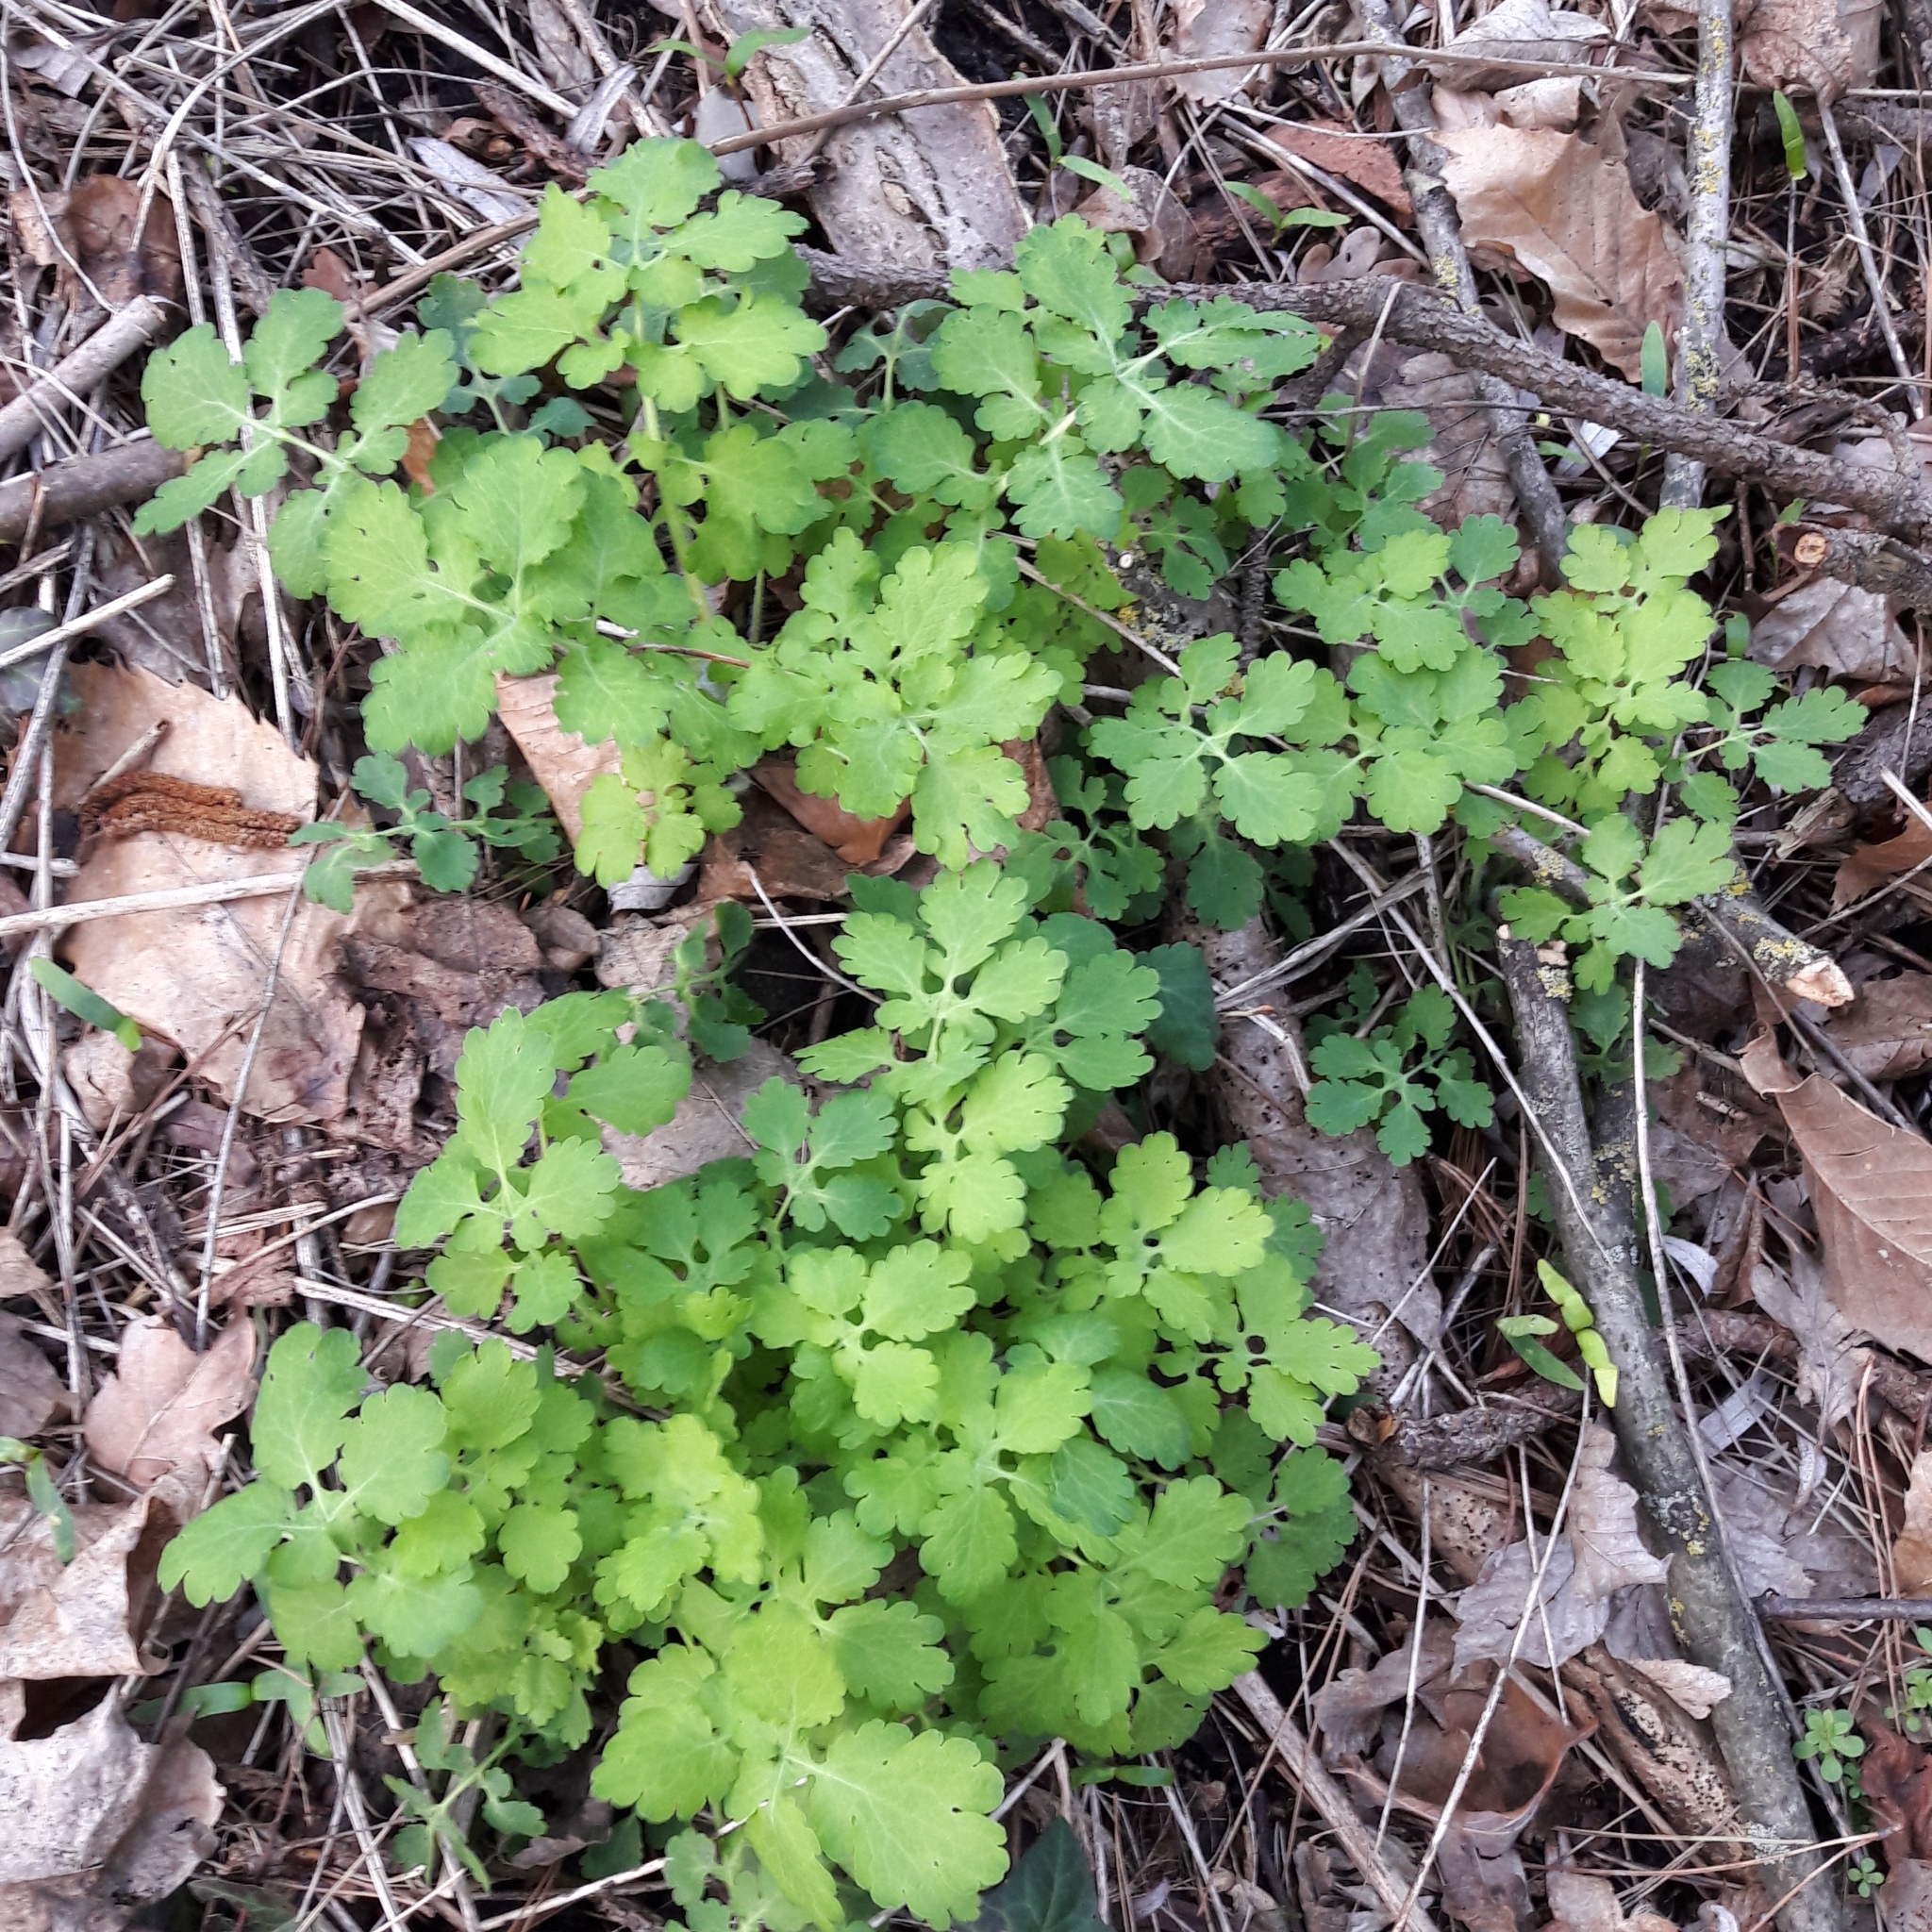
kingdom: Plantae
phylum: Tracheophyta
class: Magnoliopsida
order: Ranunculales
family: Papaveraceae
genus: Chelidonium
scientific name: Chelidonium majus
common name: Greater celandine
